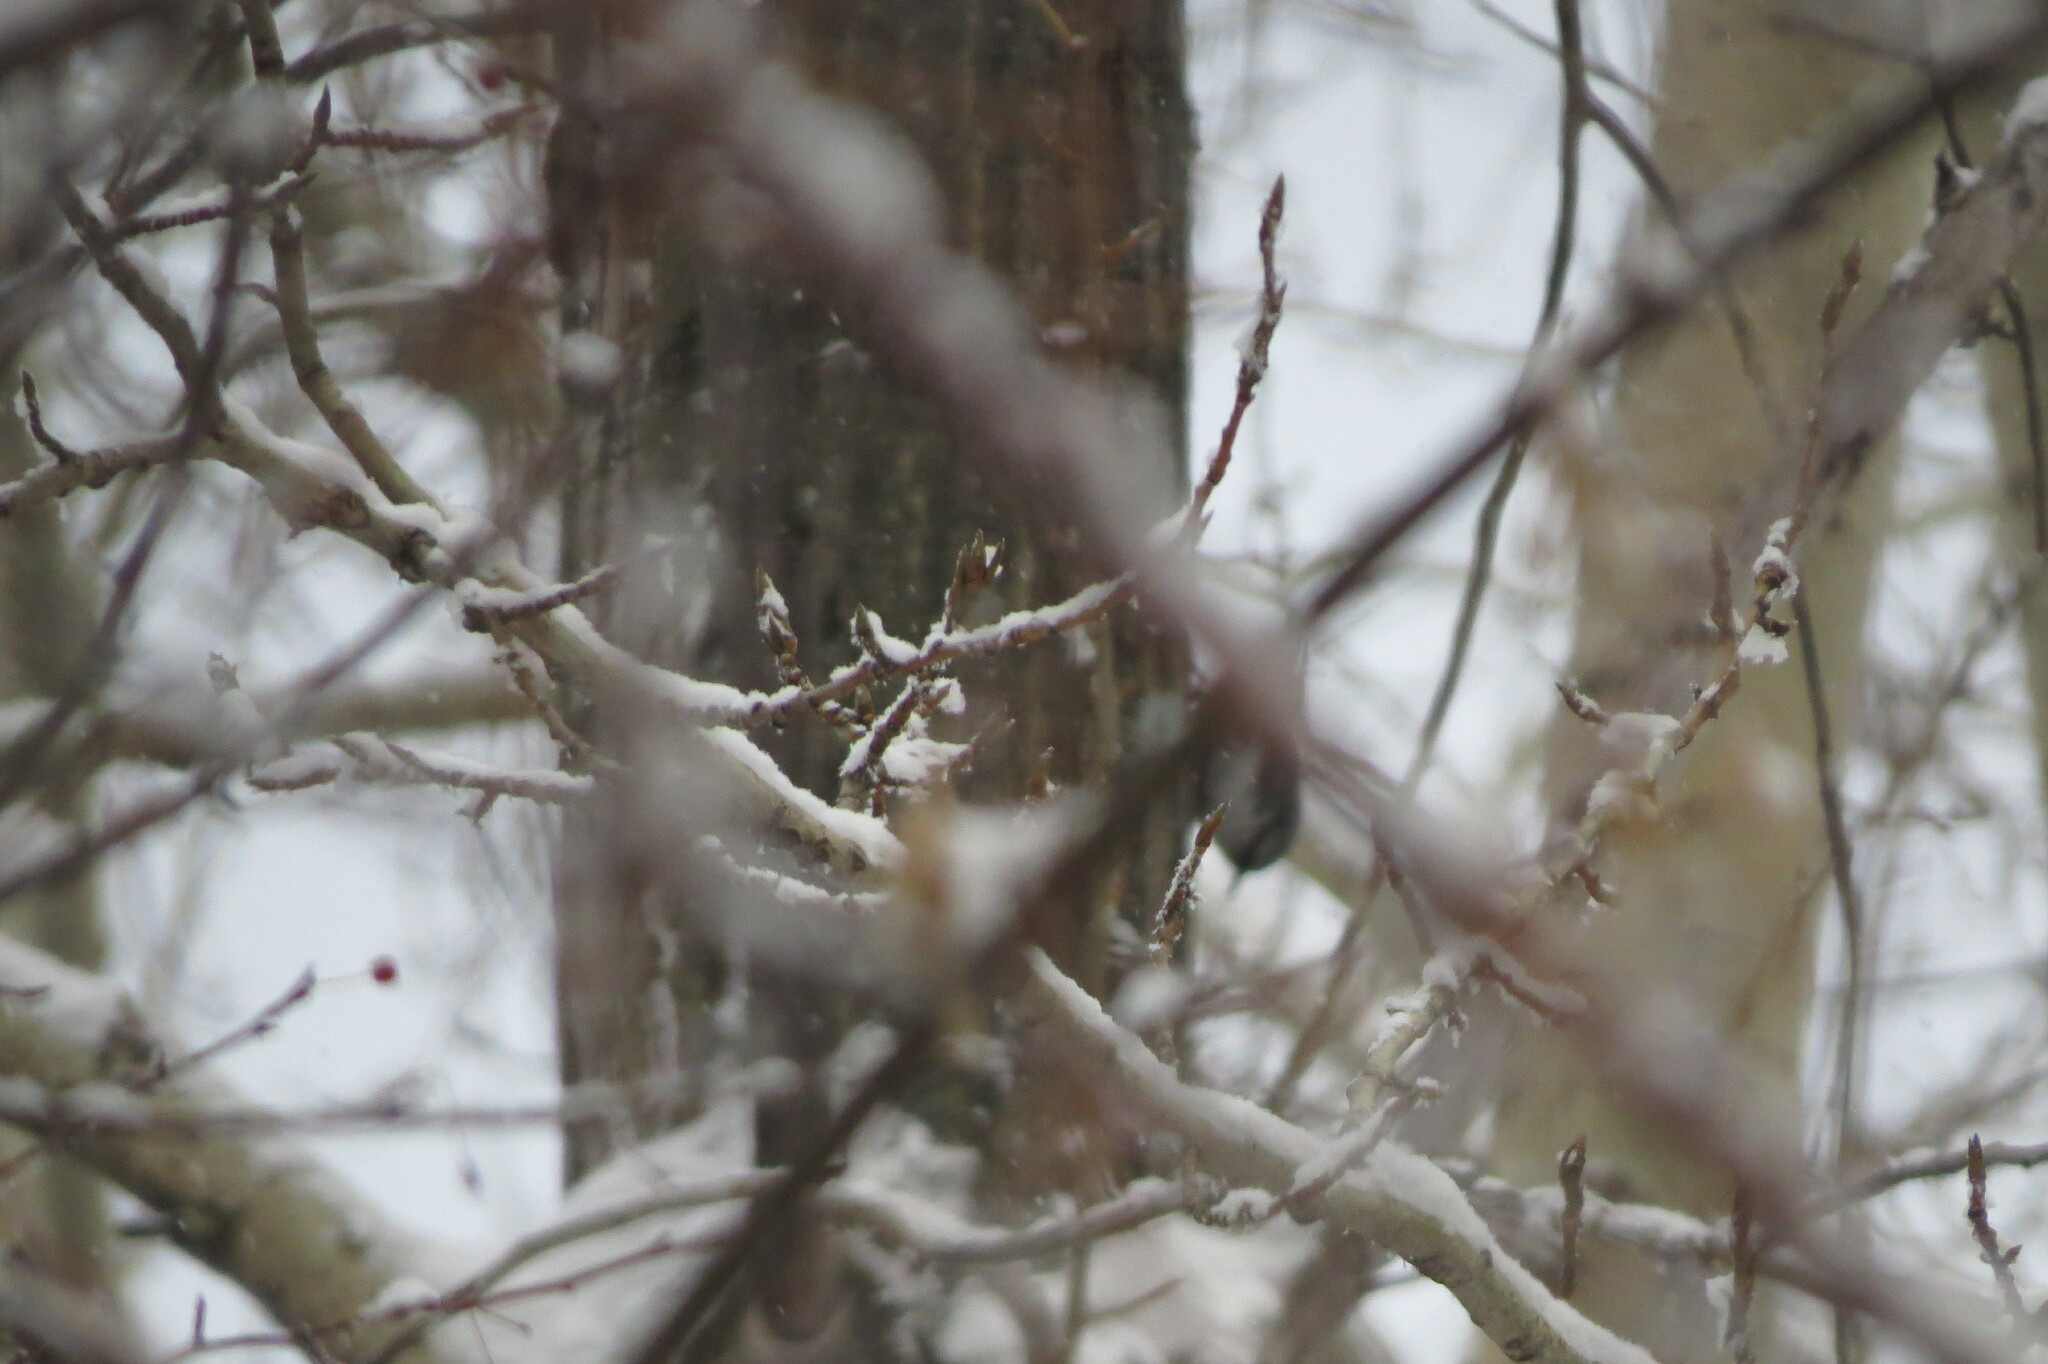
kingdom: Animalia
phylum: Chordata
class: Aves
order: Passeriformes
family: Sittidae
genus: Sitta
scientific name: Sitta europaea
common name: Eurasian nuthatch
